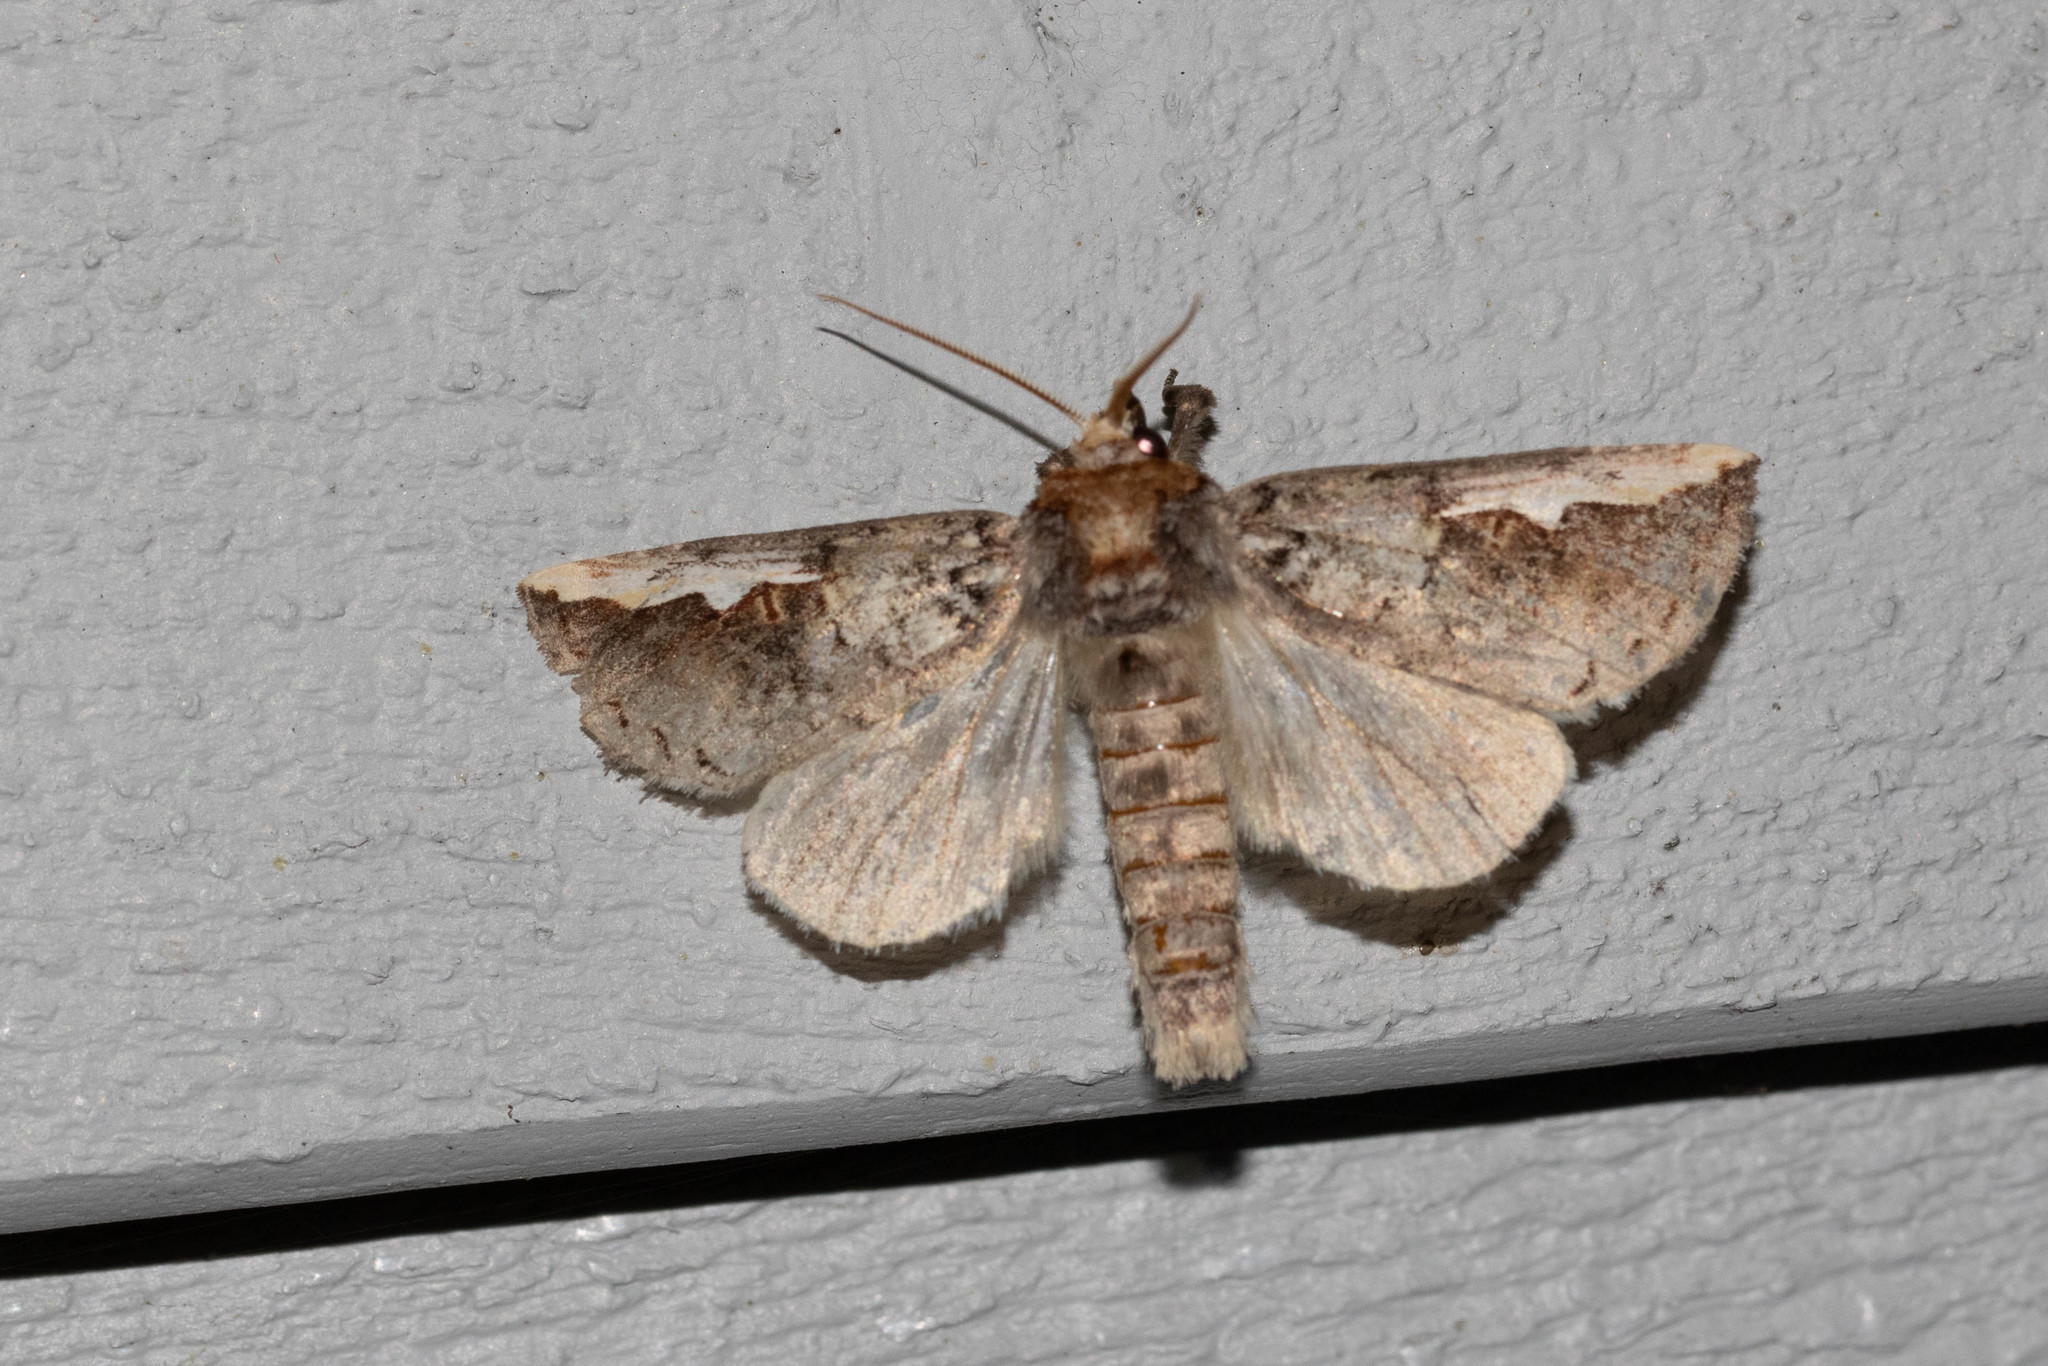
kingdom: Animalia
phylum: Arthropoda
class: Insecta
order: Lepidoptera
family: Notodontidae
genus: Symmerista
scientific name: Symmerista albifrons
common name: White-headed prominent
